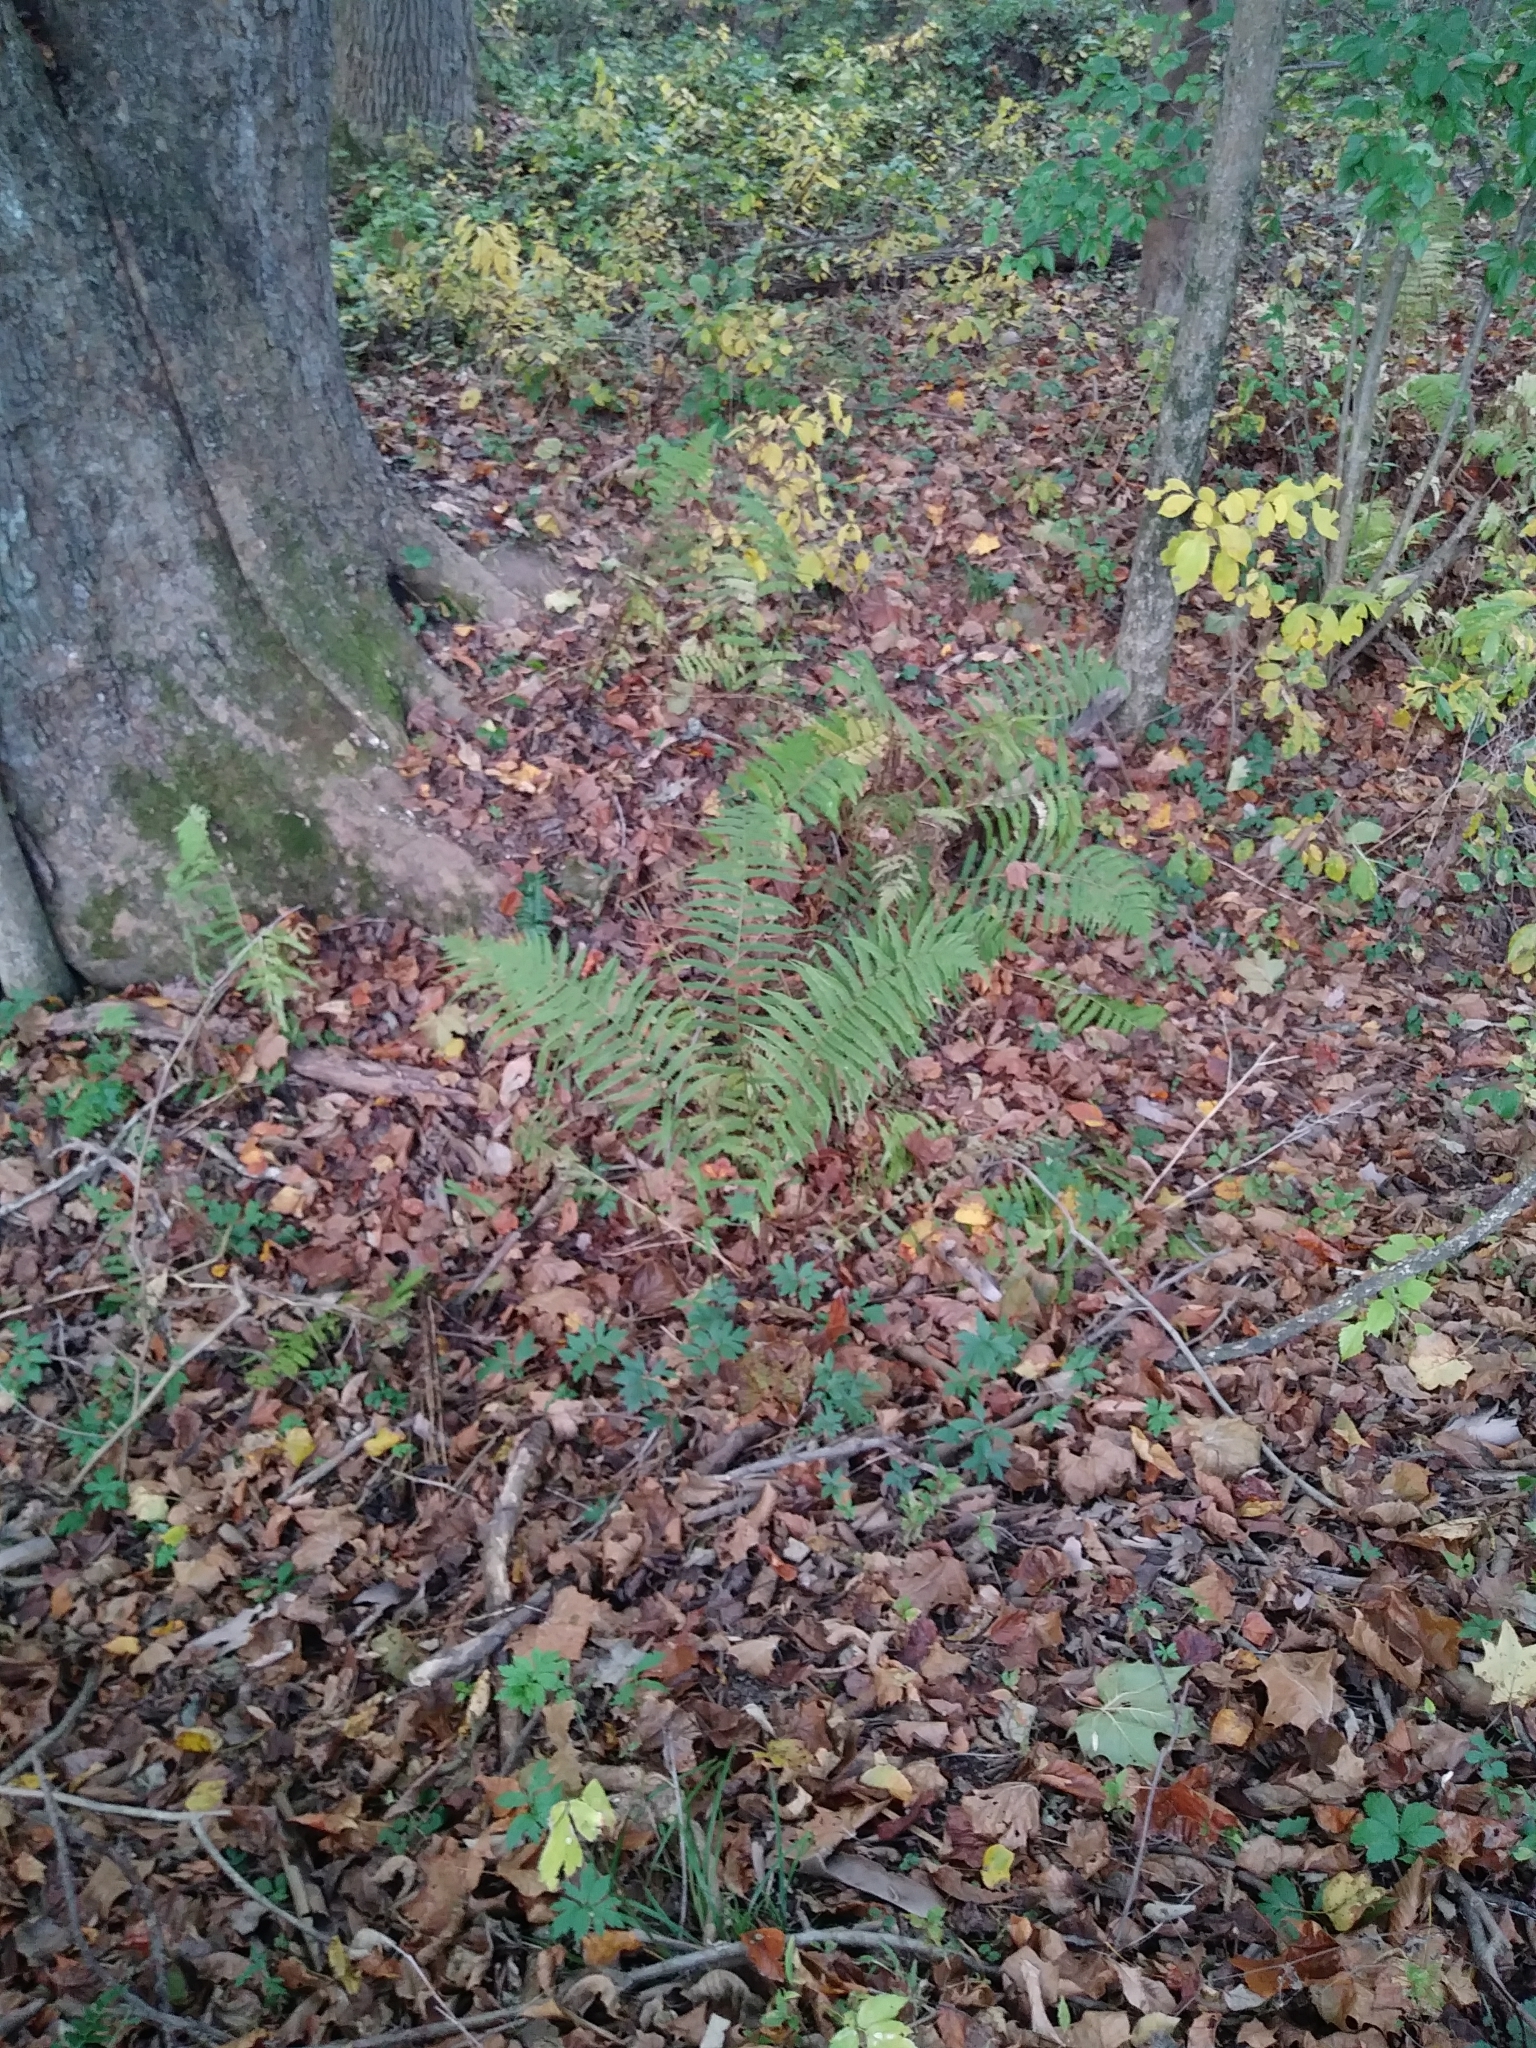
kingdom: Plantae
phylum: Tracheophyta
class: Polypodiopsida
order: Polypodiales
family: Onocleaceae
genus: Matteuccia
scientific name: Matteuccia struthiopteris
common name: Ostrich fern
